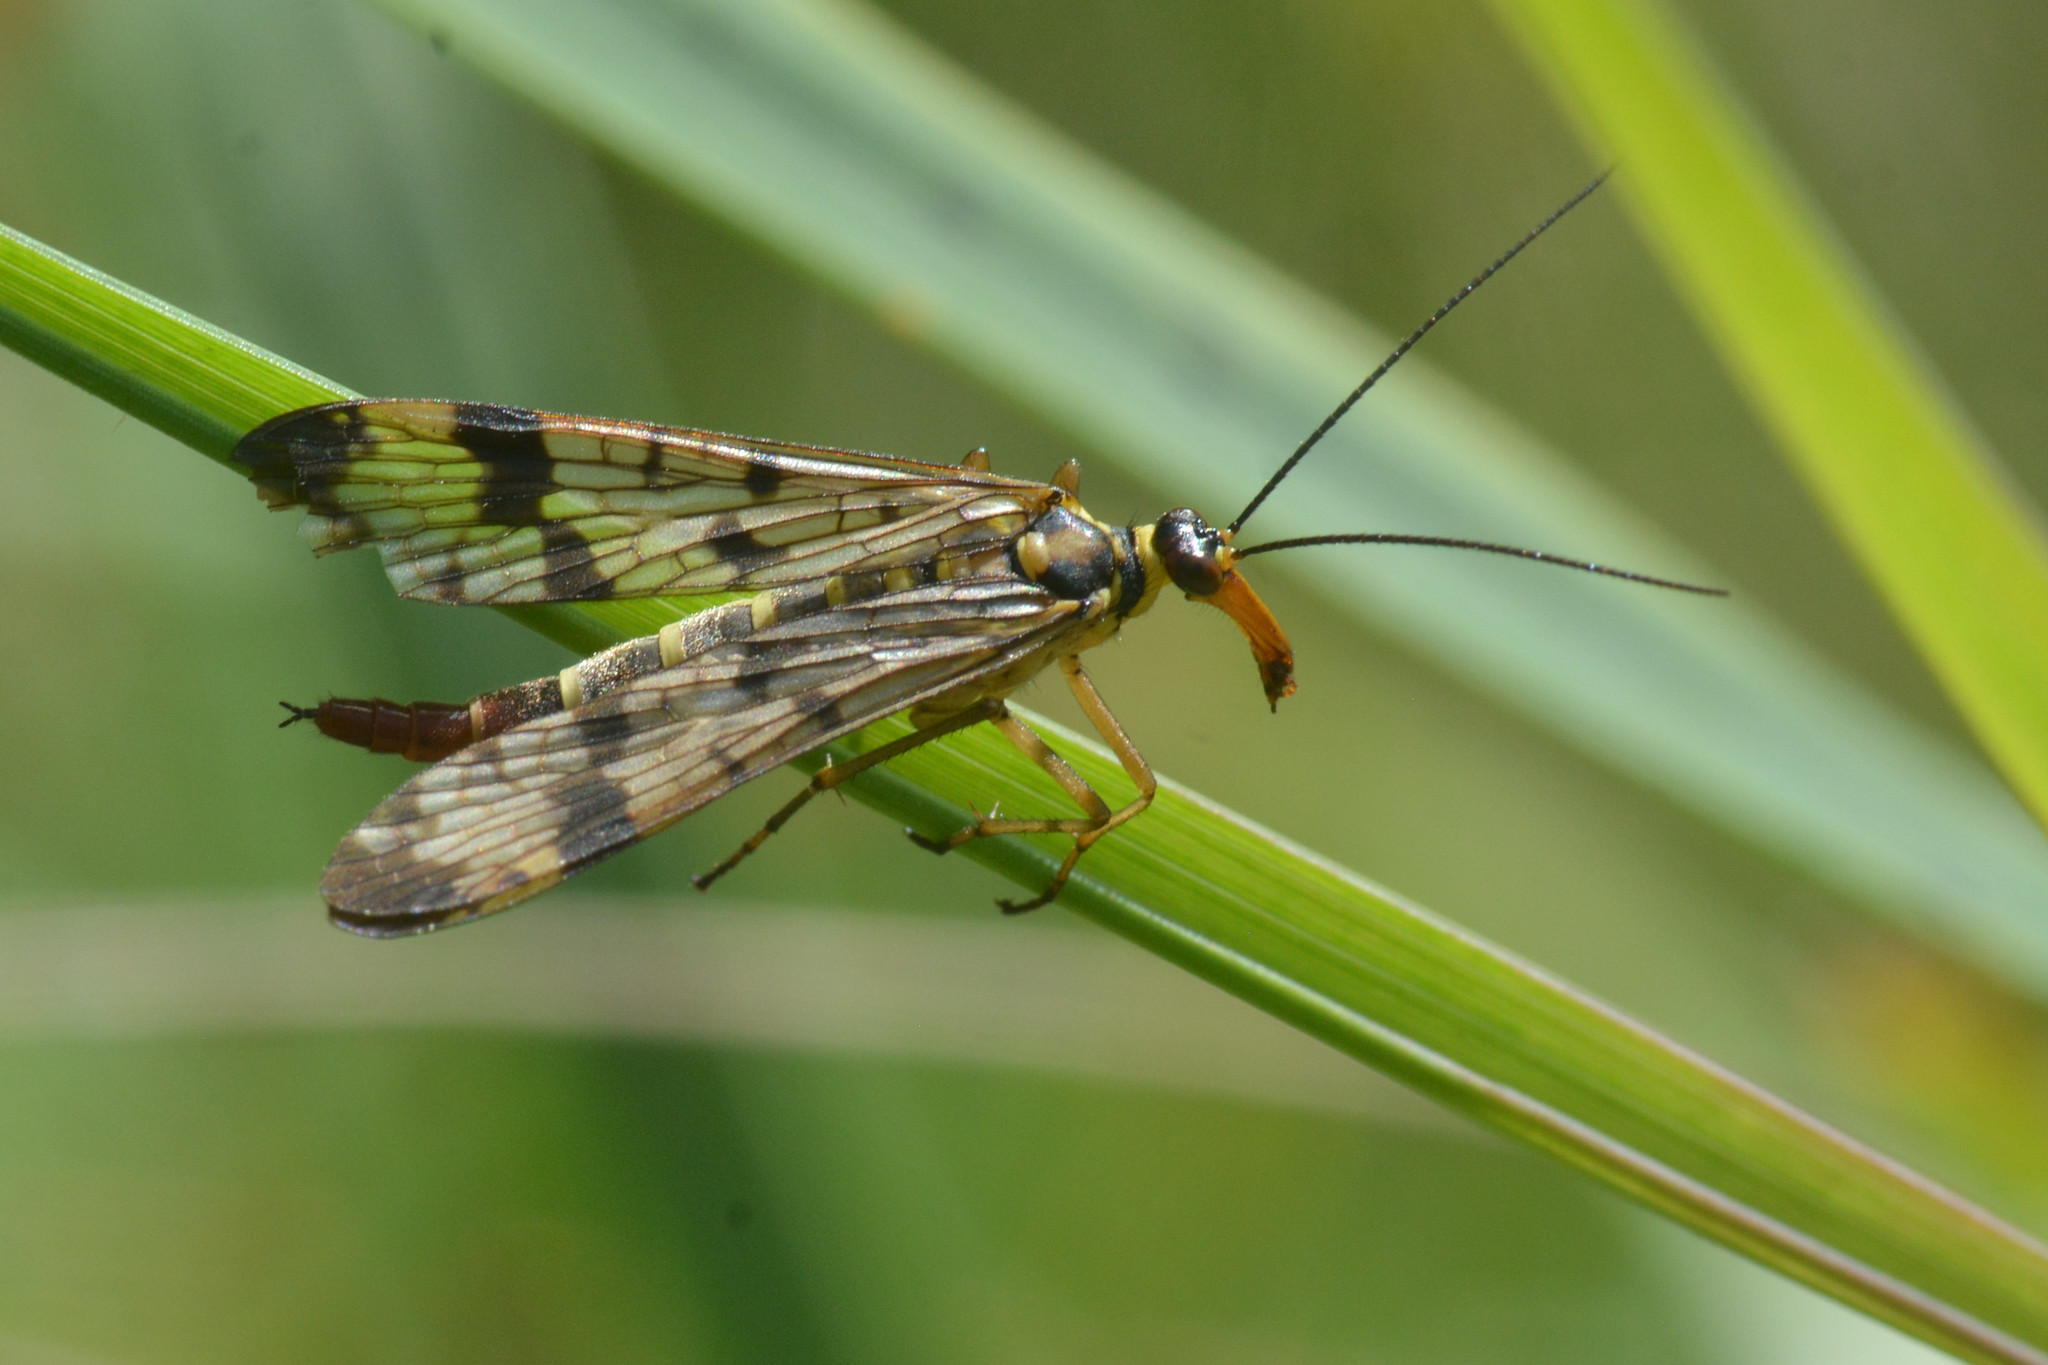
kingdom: Animalia
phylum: Arthropoda
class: Insecta
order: Mecoptera
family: Panorpidae
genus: Panorpa
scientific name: Panorpa
